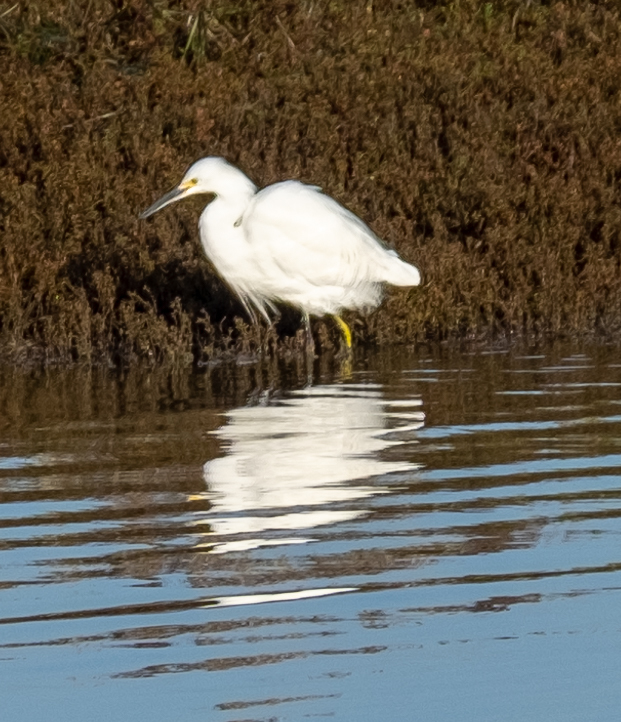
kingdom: Animalia
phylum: Chordata
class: Aves
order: Pelecaniformes
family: Ardeidae
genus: Egretta
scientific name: Egretta thula
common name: Snowy egret
